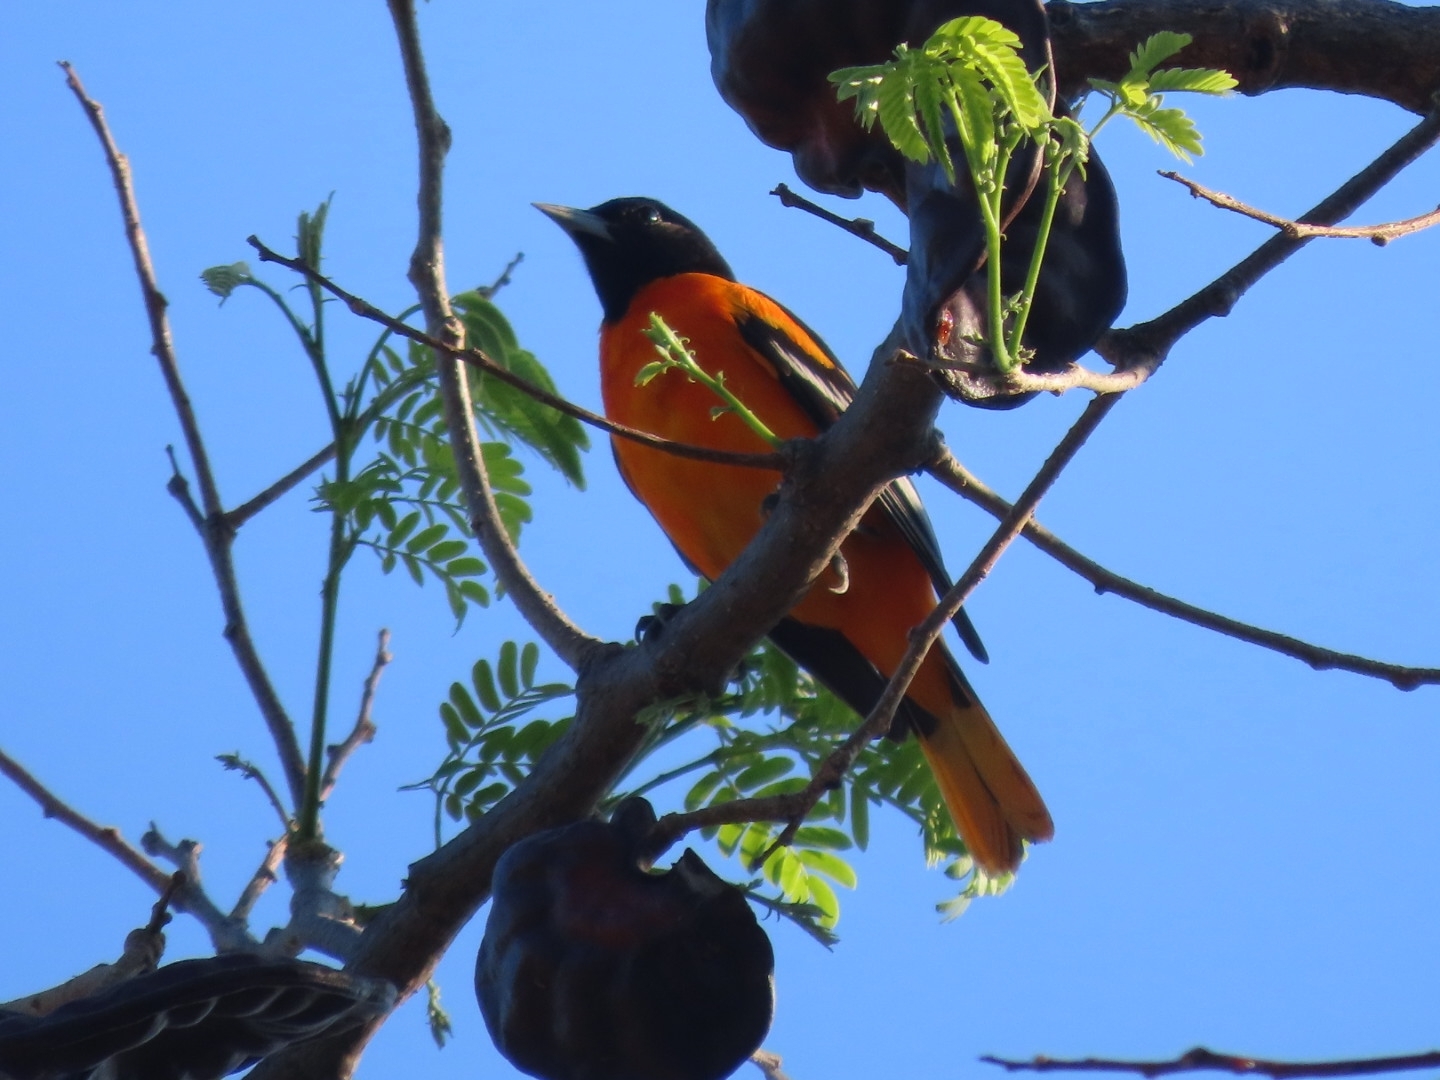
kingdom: Animalia
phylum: Chordata
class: Aves
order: Passeriformes
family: Icteridae
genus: Icterus
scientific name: Icterus galbula
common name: Baltimore oriole
